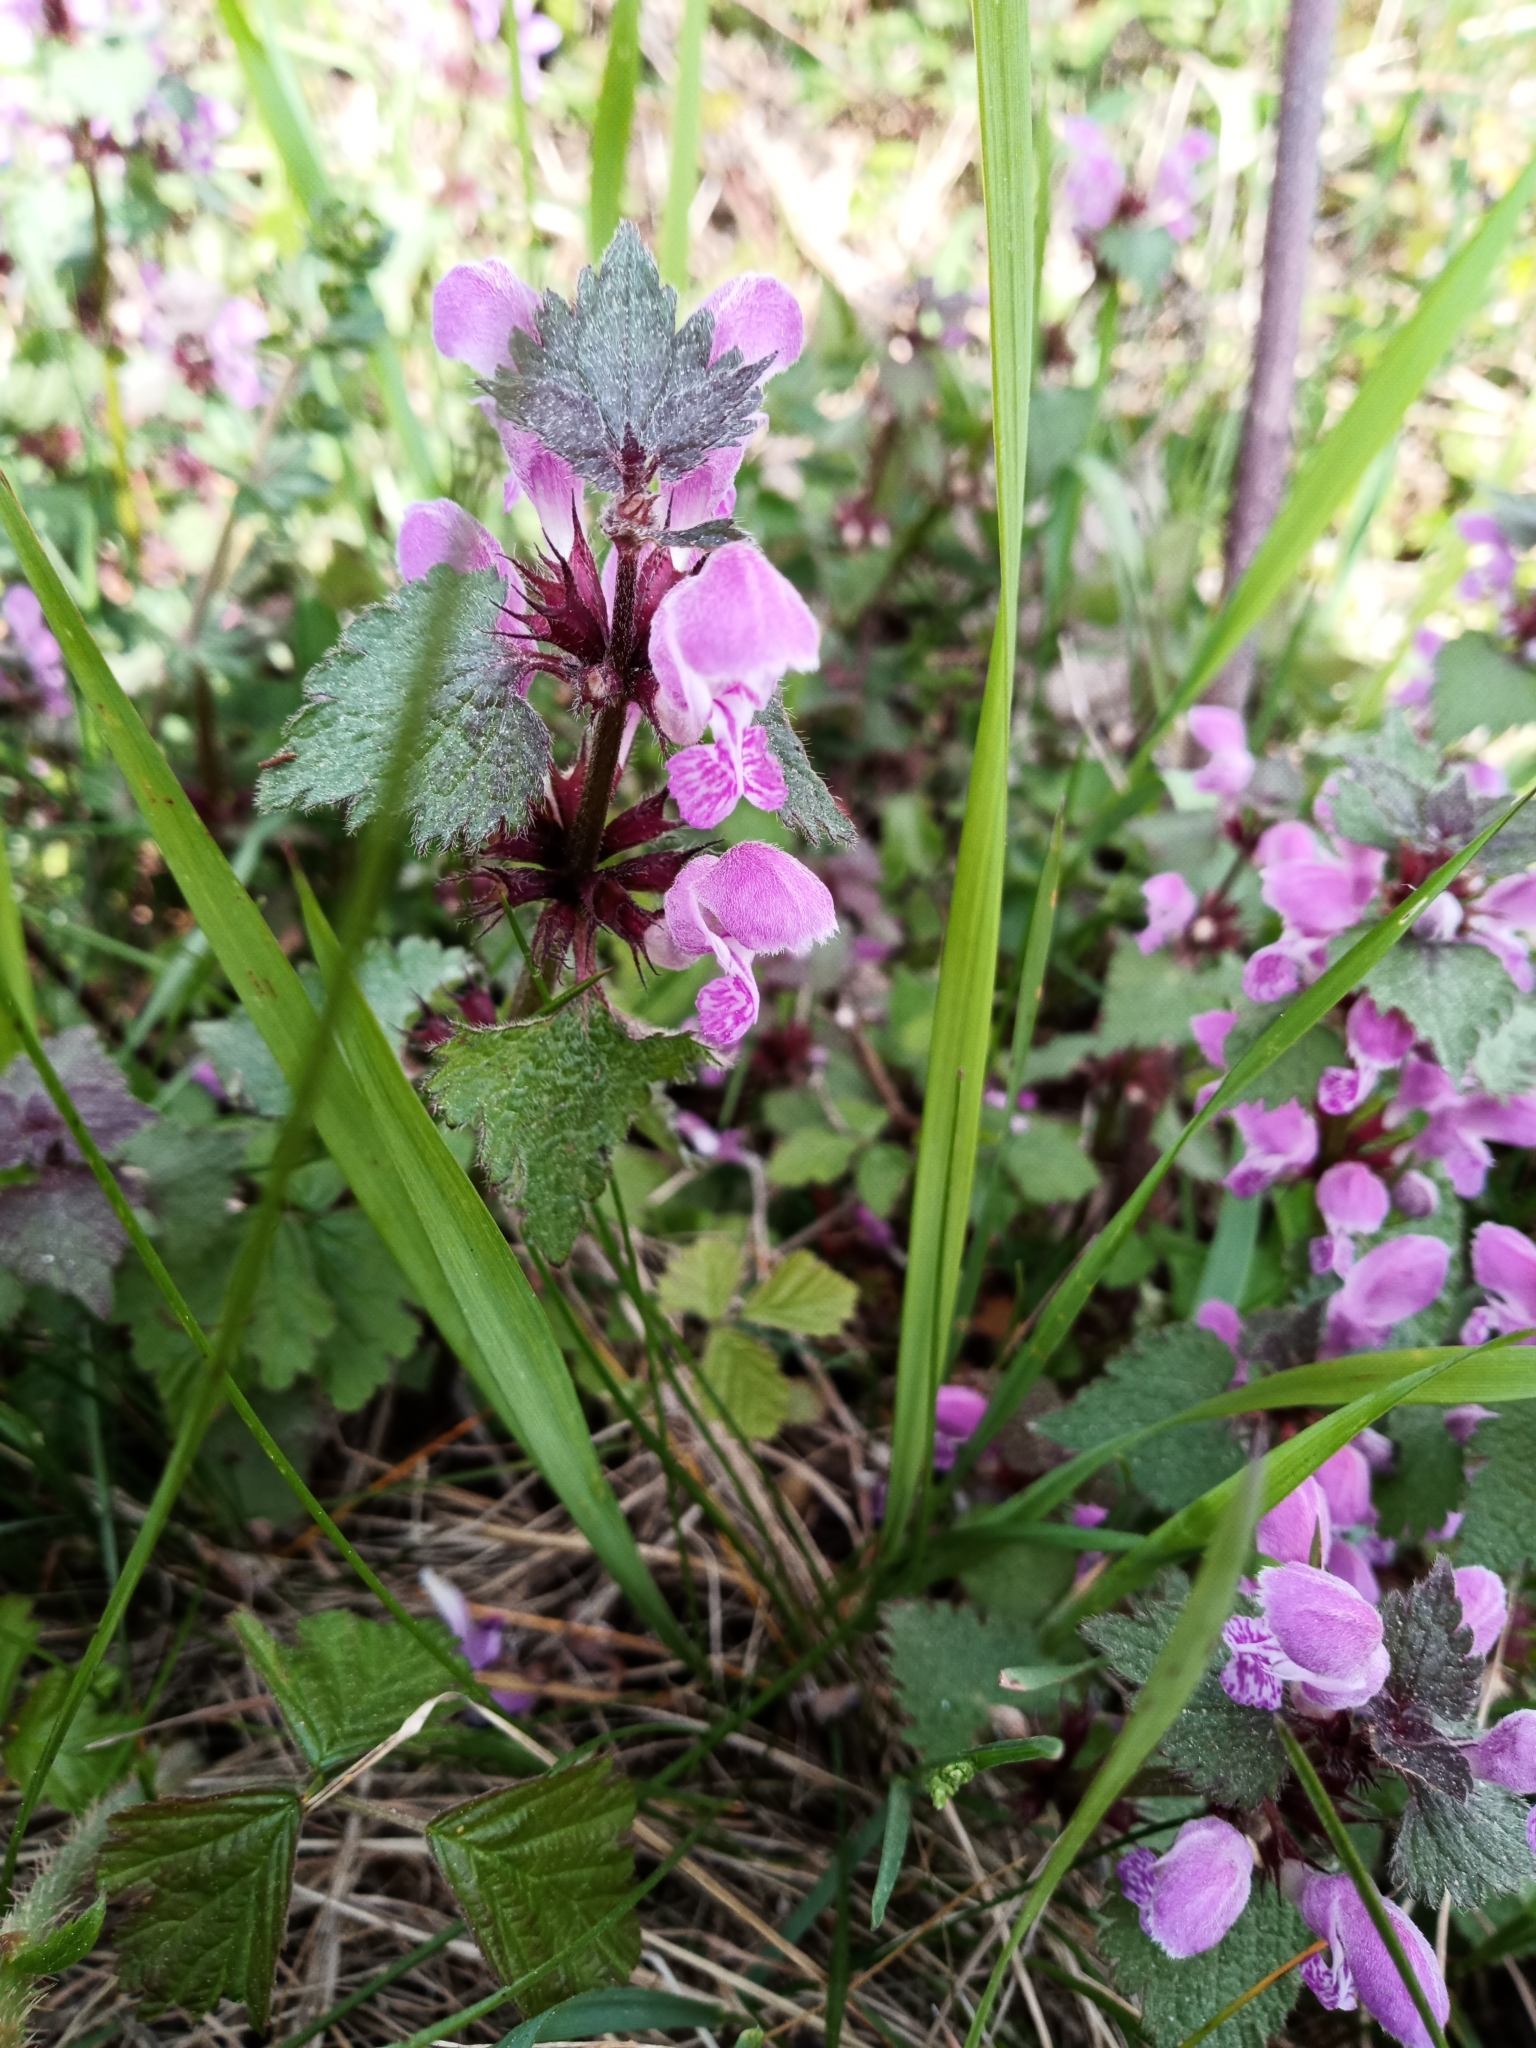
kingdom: Plantae
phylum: Tracheophyta
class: Magnoliopsida
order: Lamiales
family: Lamiaceae
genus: Lamium
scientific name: Lamium maculatum
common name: Spotted dead-nettle
